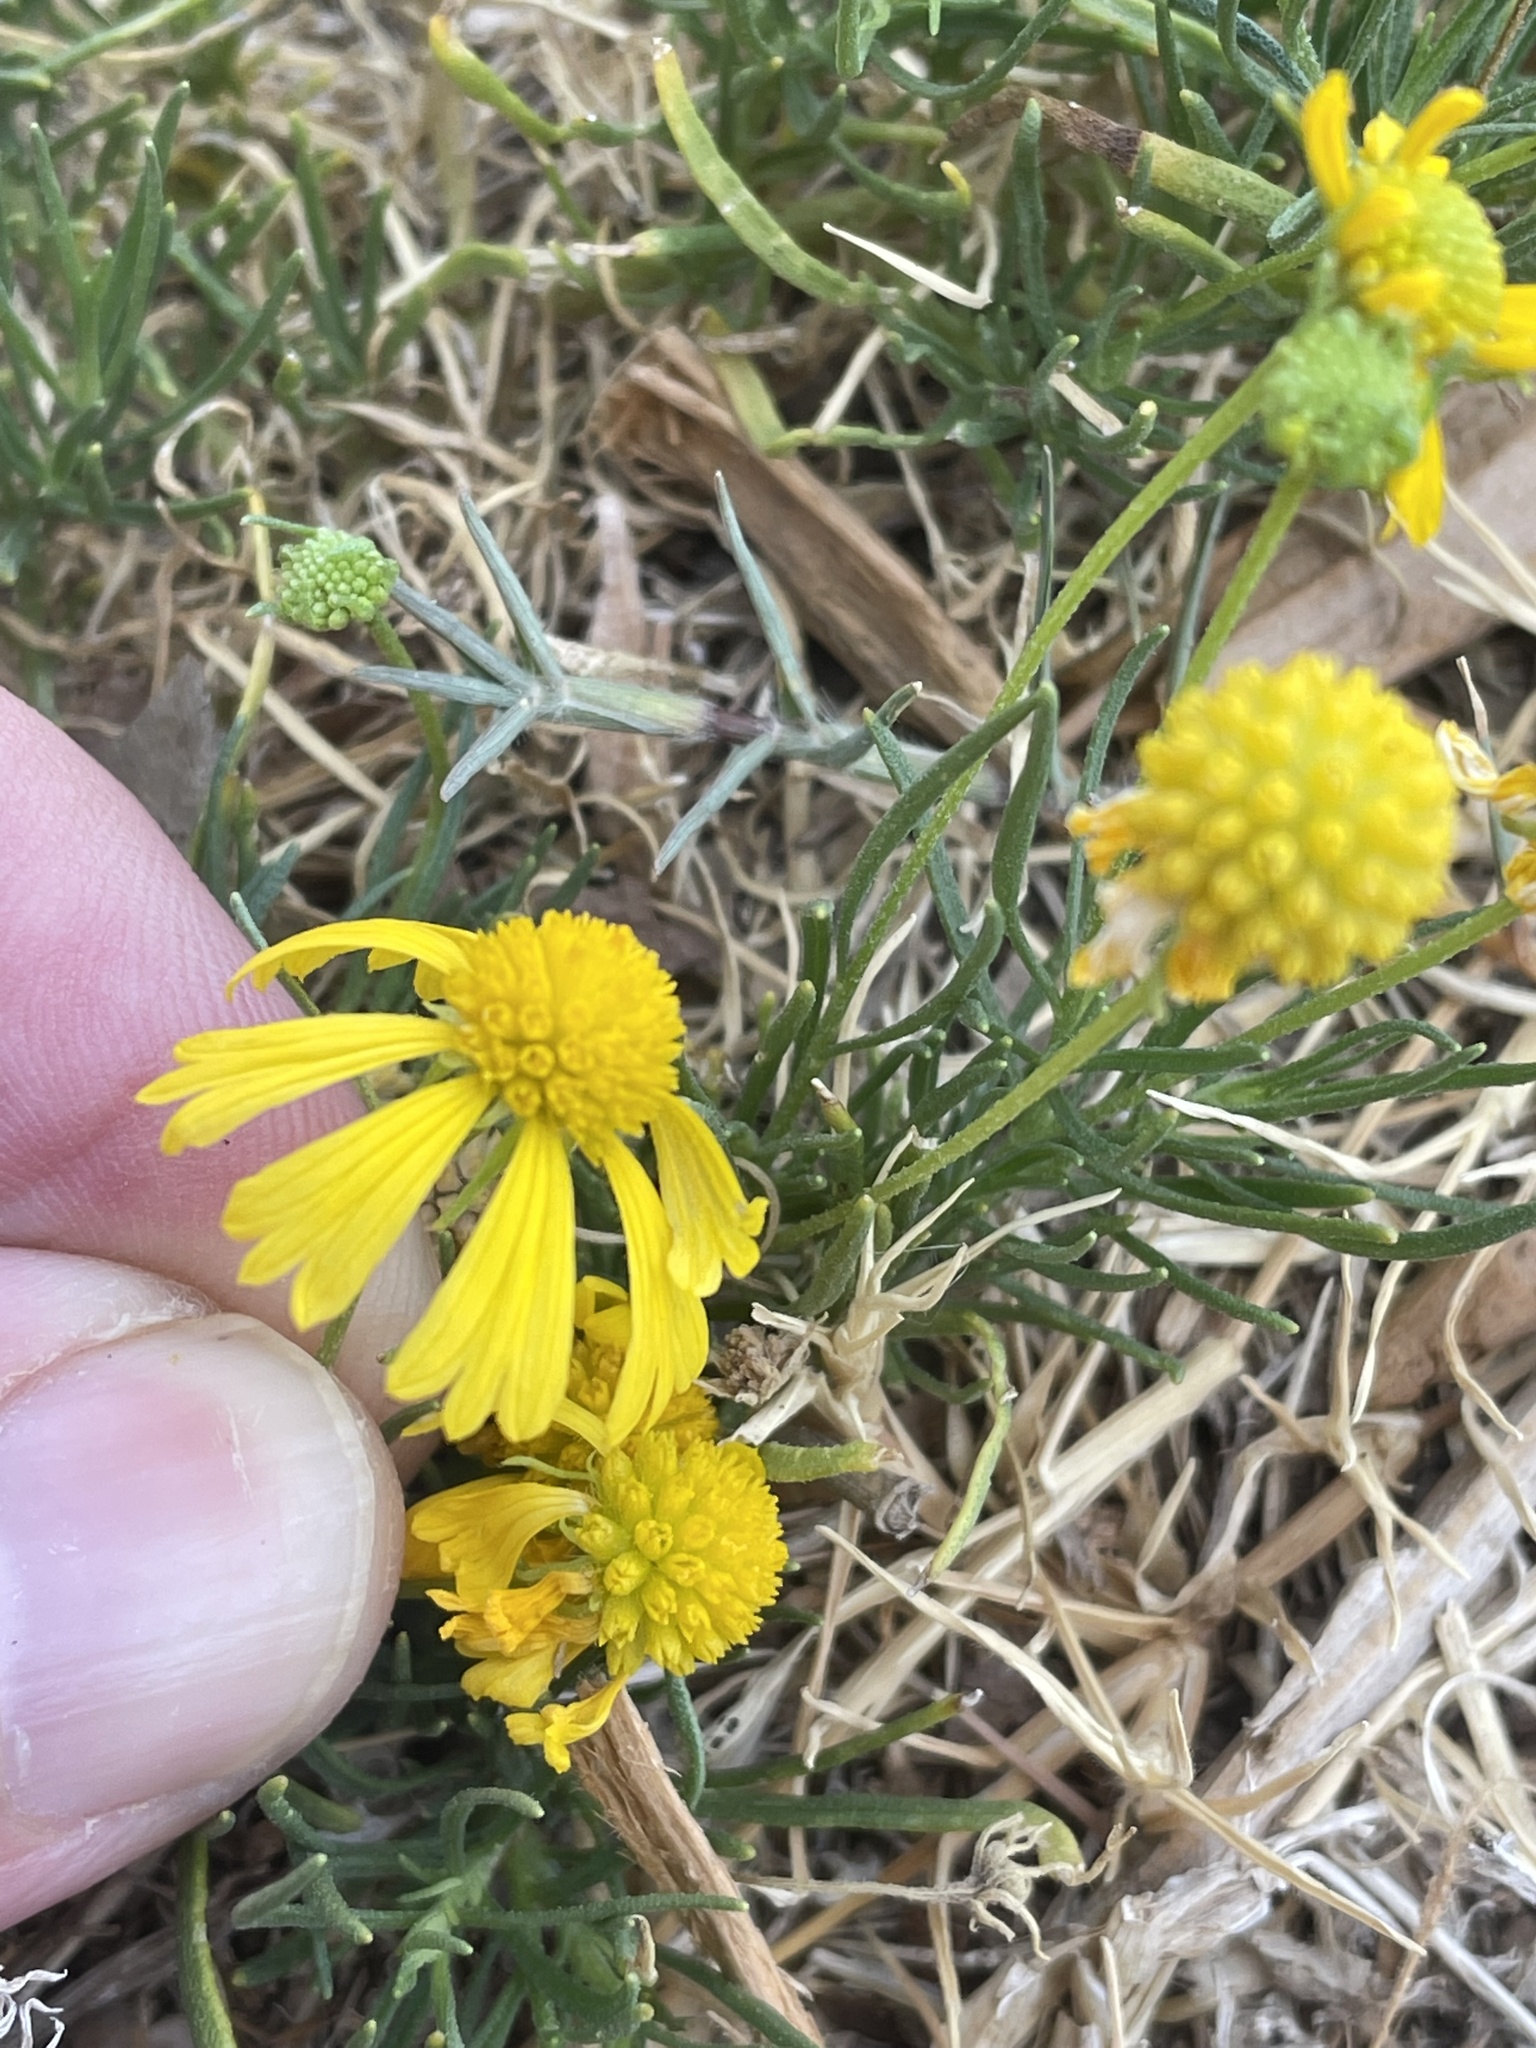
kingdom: Plantae
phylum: Tracheophyta
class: Magnoliopsida
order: Asterales
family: Asteraceae
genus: Helenium
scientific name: Helenium amarum
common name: Bitter sneezeweed
